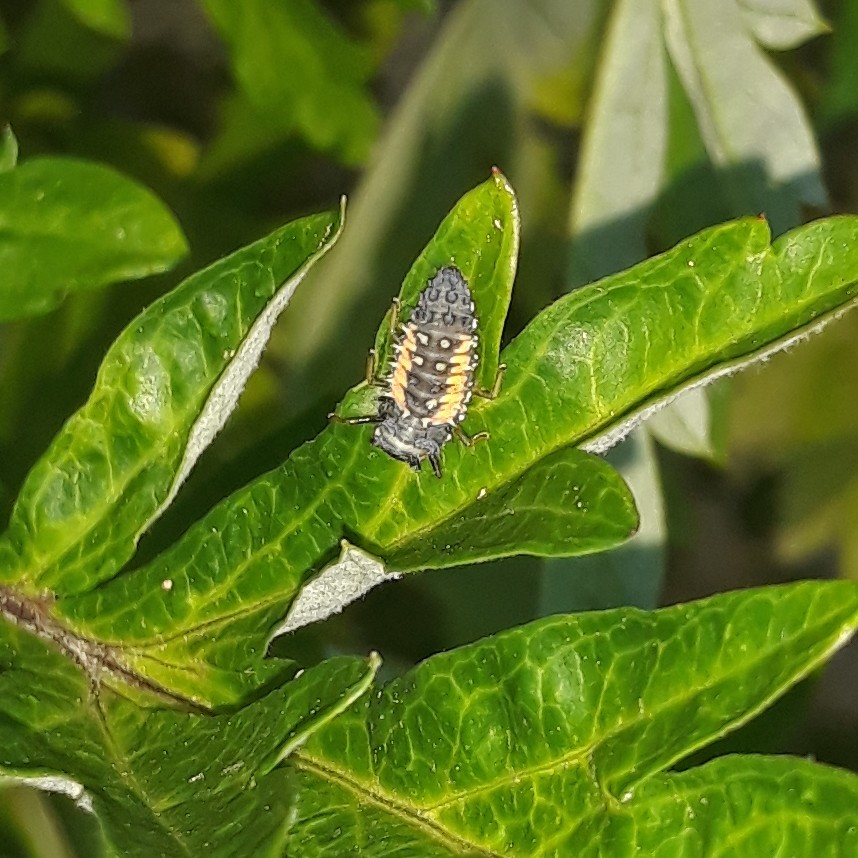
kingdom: Animalia
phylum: Arthropoda
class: Insecta
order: Coleoptera
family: Coccinellidae
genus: Harmonia
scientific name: Harmonia axyridis
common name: Harlequin ladybird
